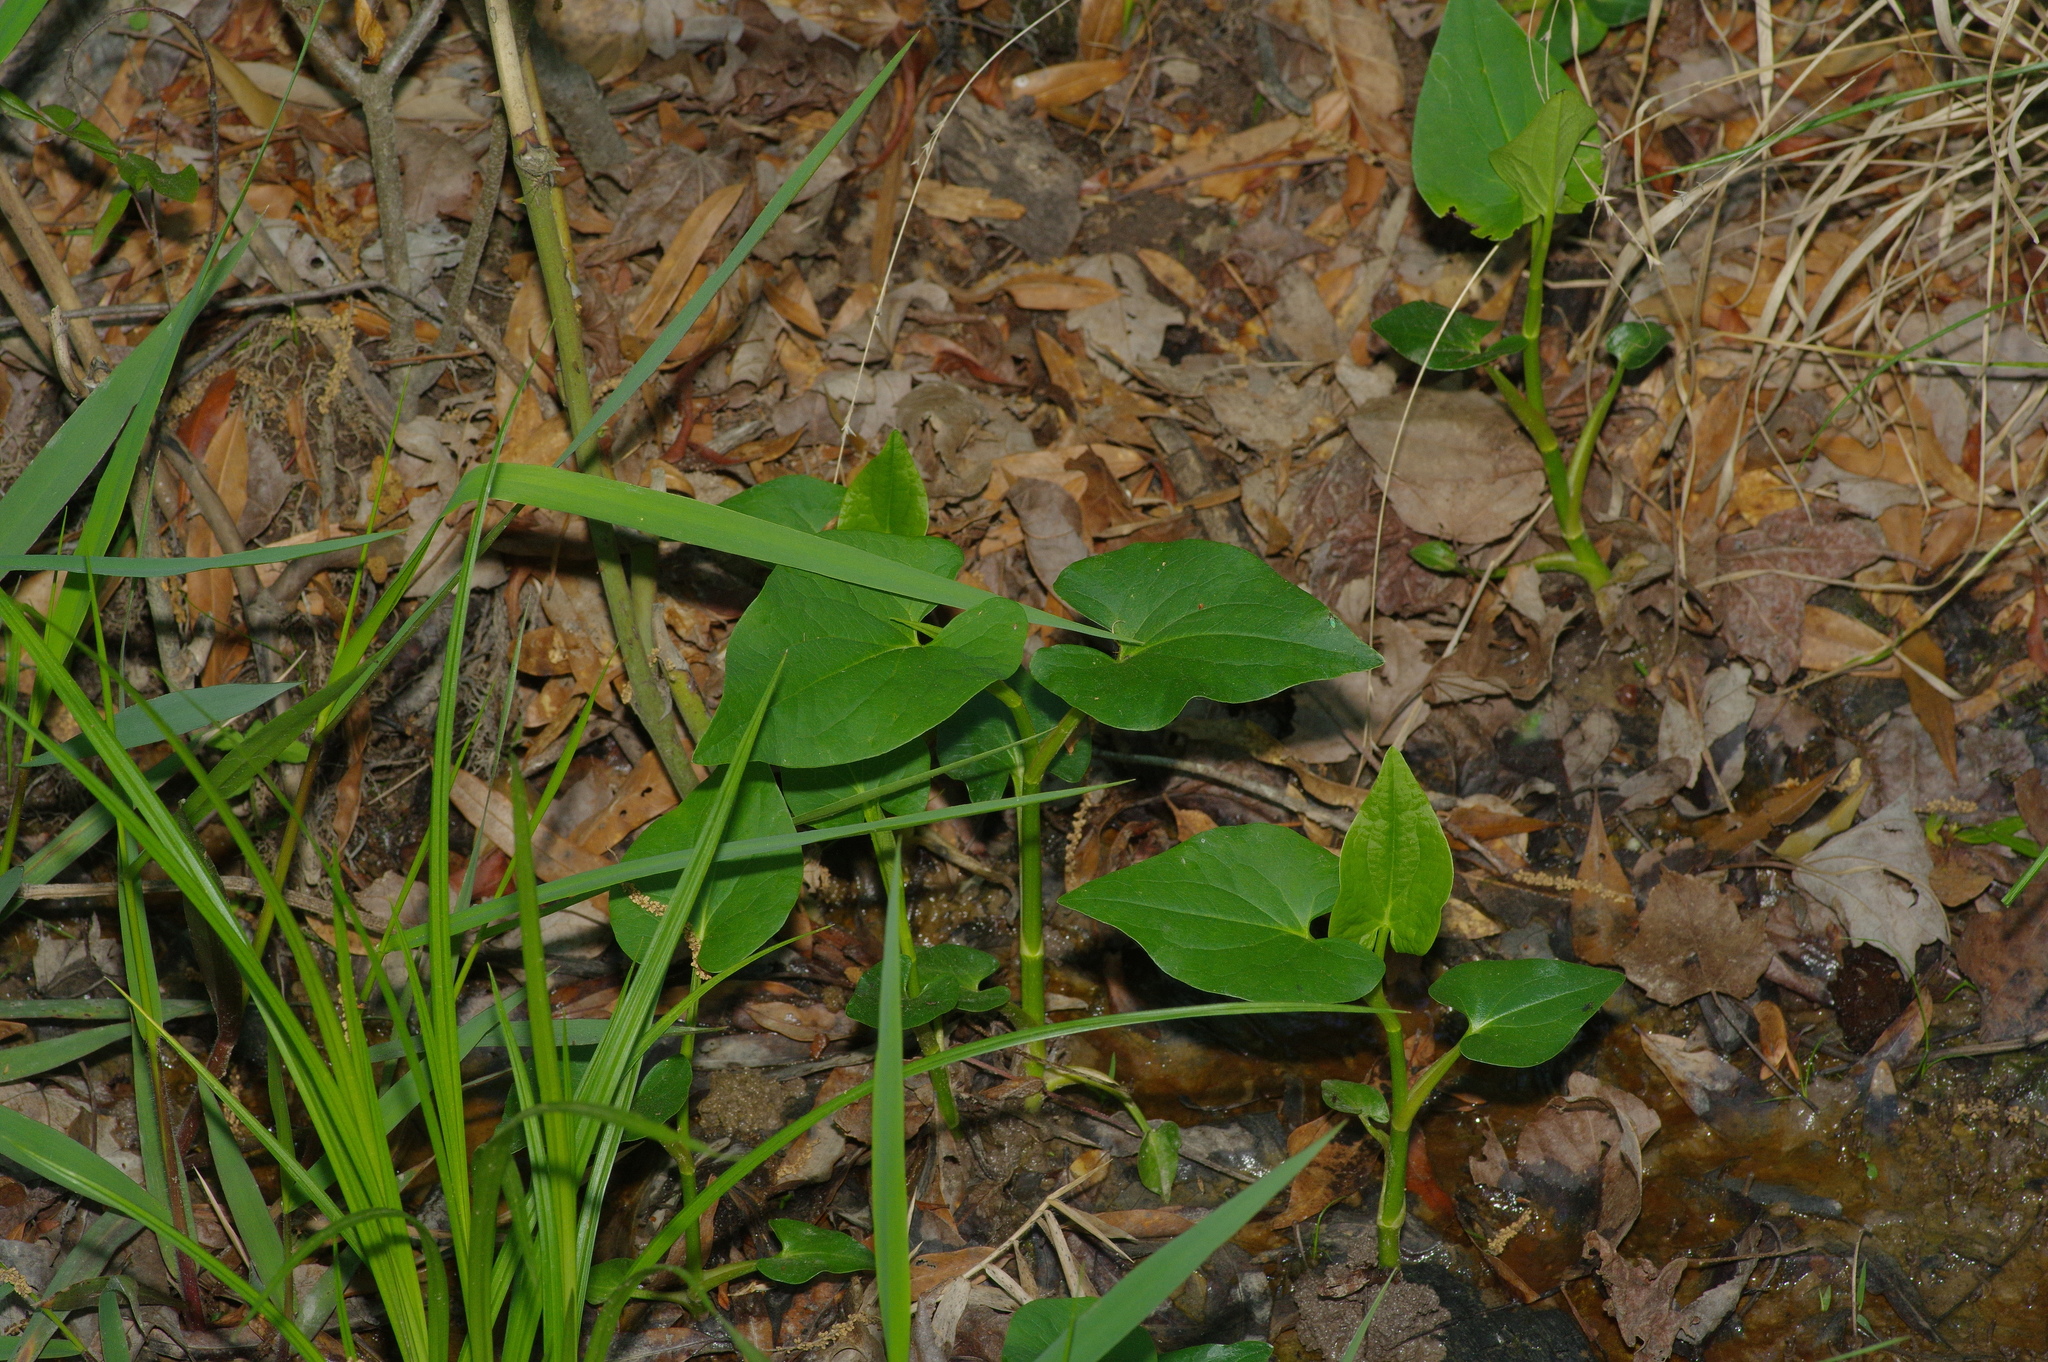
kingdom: Plantae
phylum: Tracheophyta
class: Magnoliopsida
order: Piperales
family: Saururaceae
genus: Saururus
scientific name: Saururus cernuus
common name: Lizard's-tail
